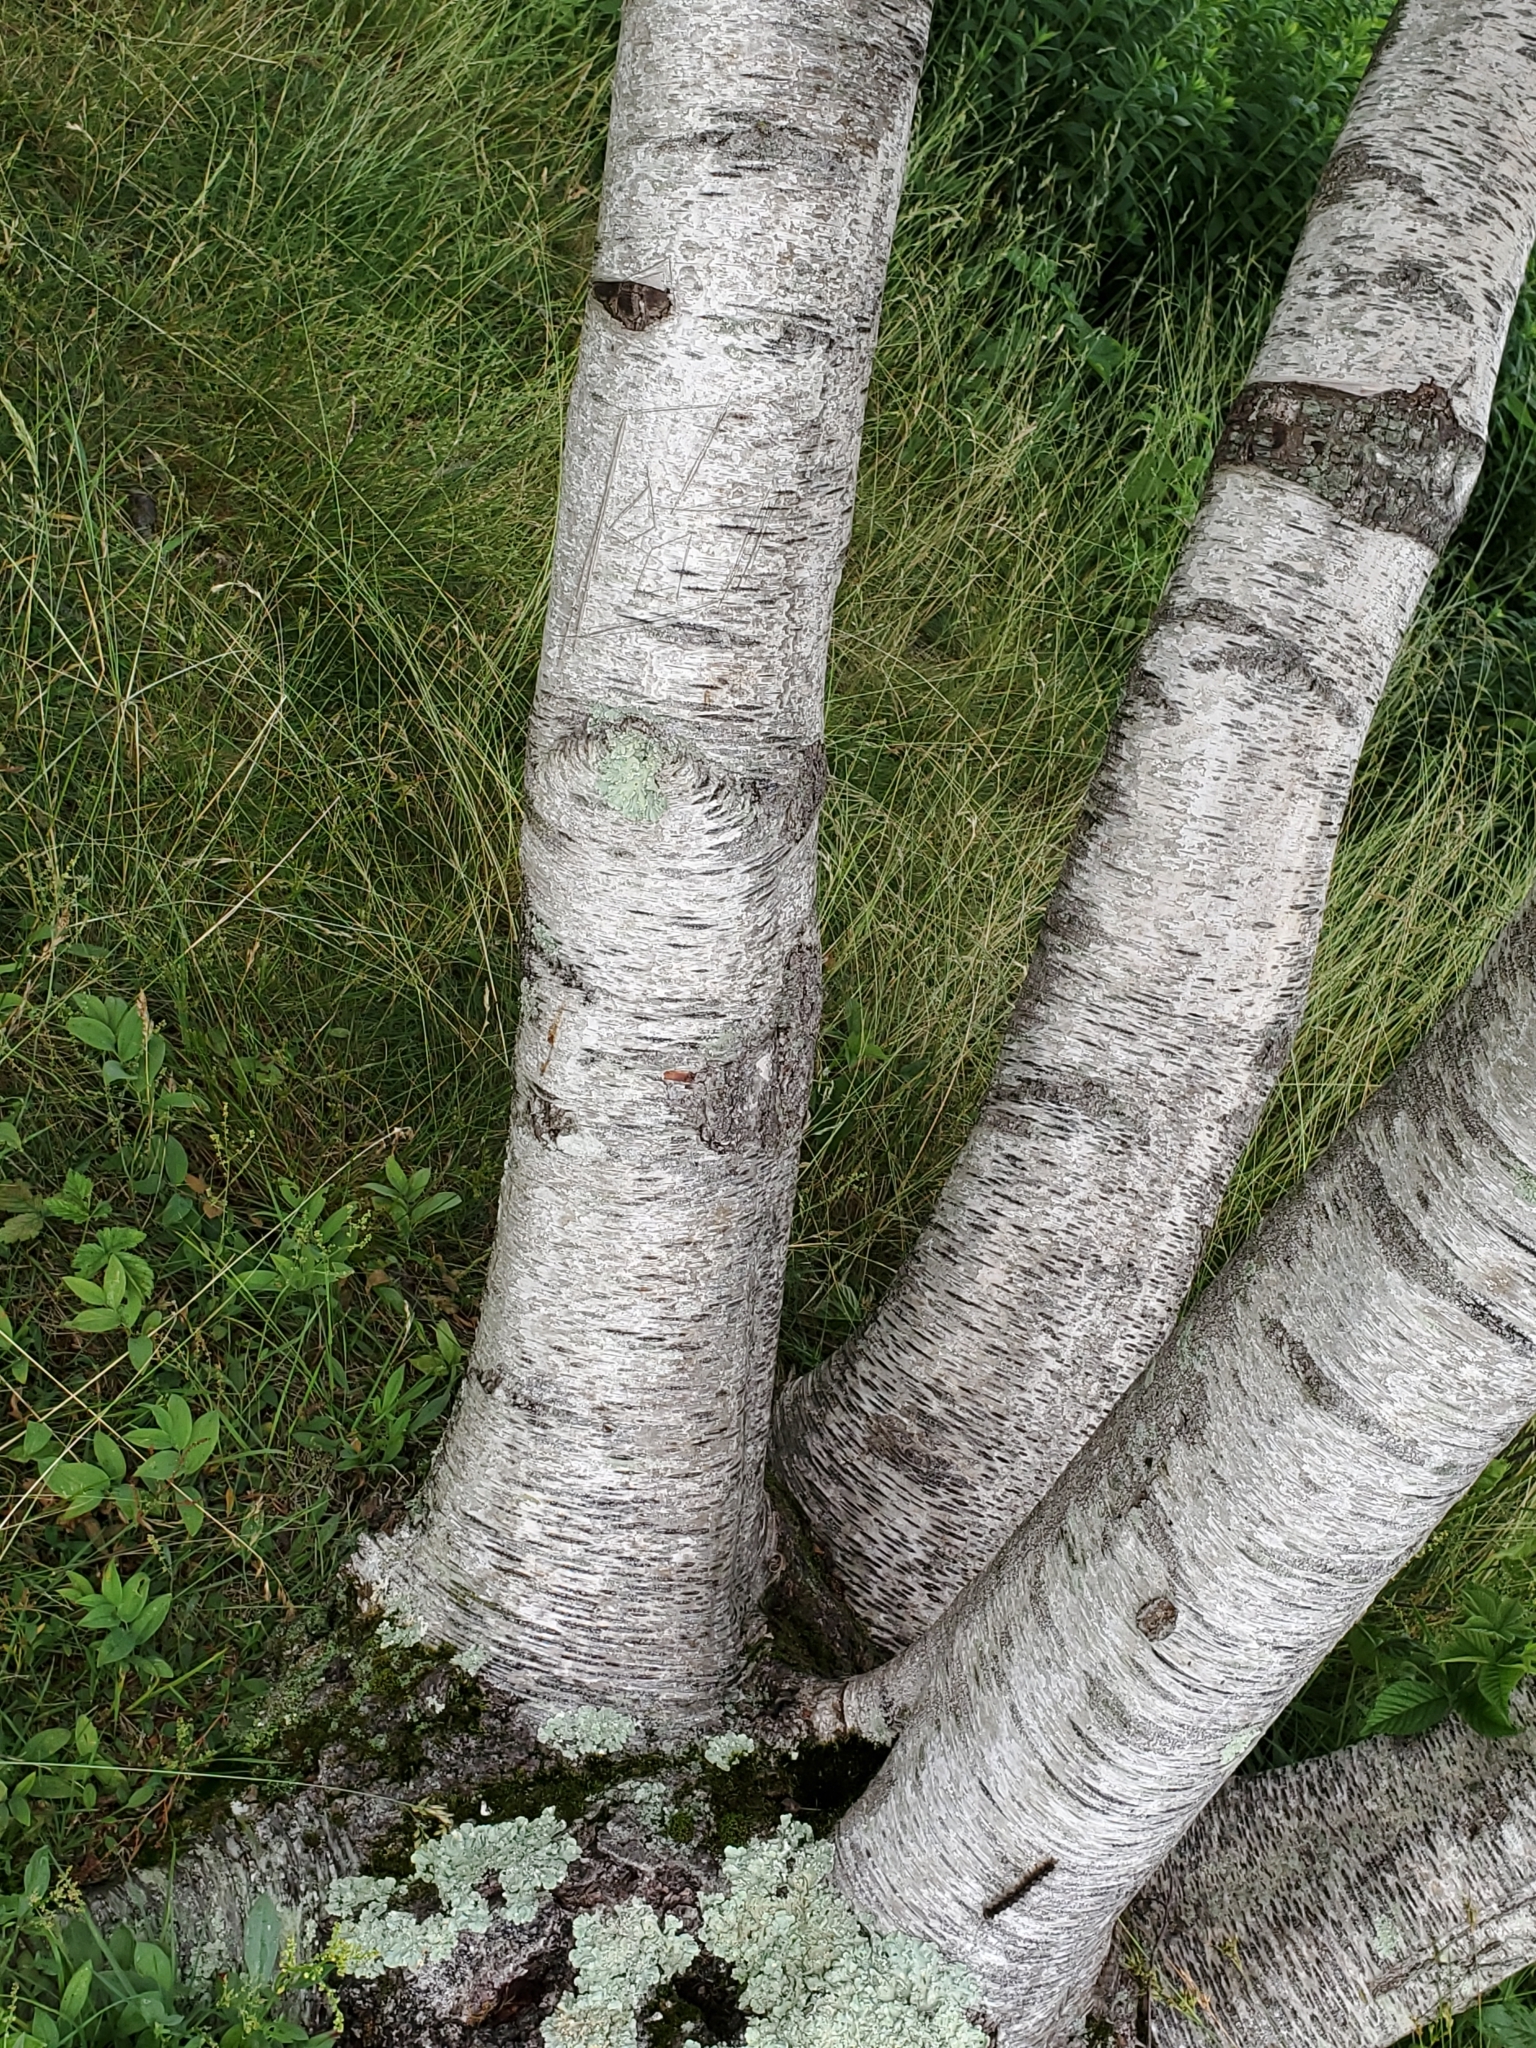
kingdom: Plantae
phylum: Tracheophyta
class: Magnoliopsida
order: Fagales
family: Betulaceae
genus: Betula
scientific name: Betula populifolia
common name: Fire birch
